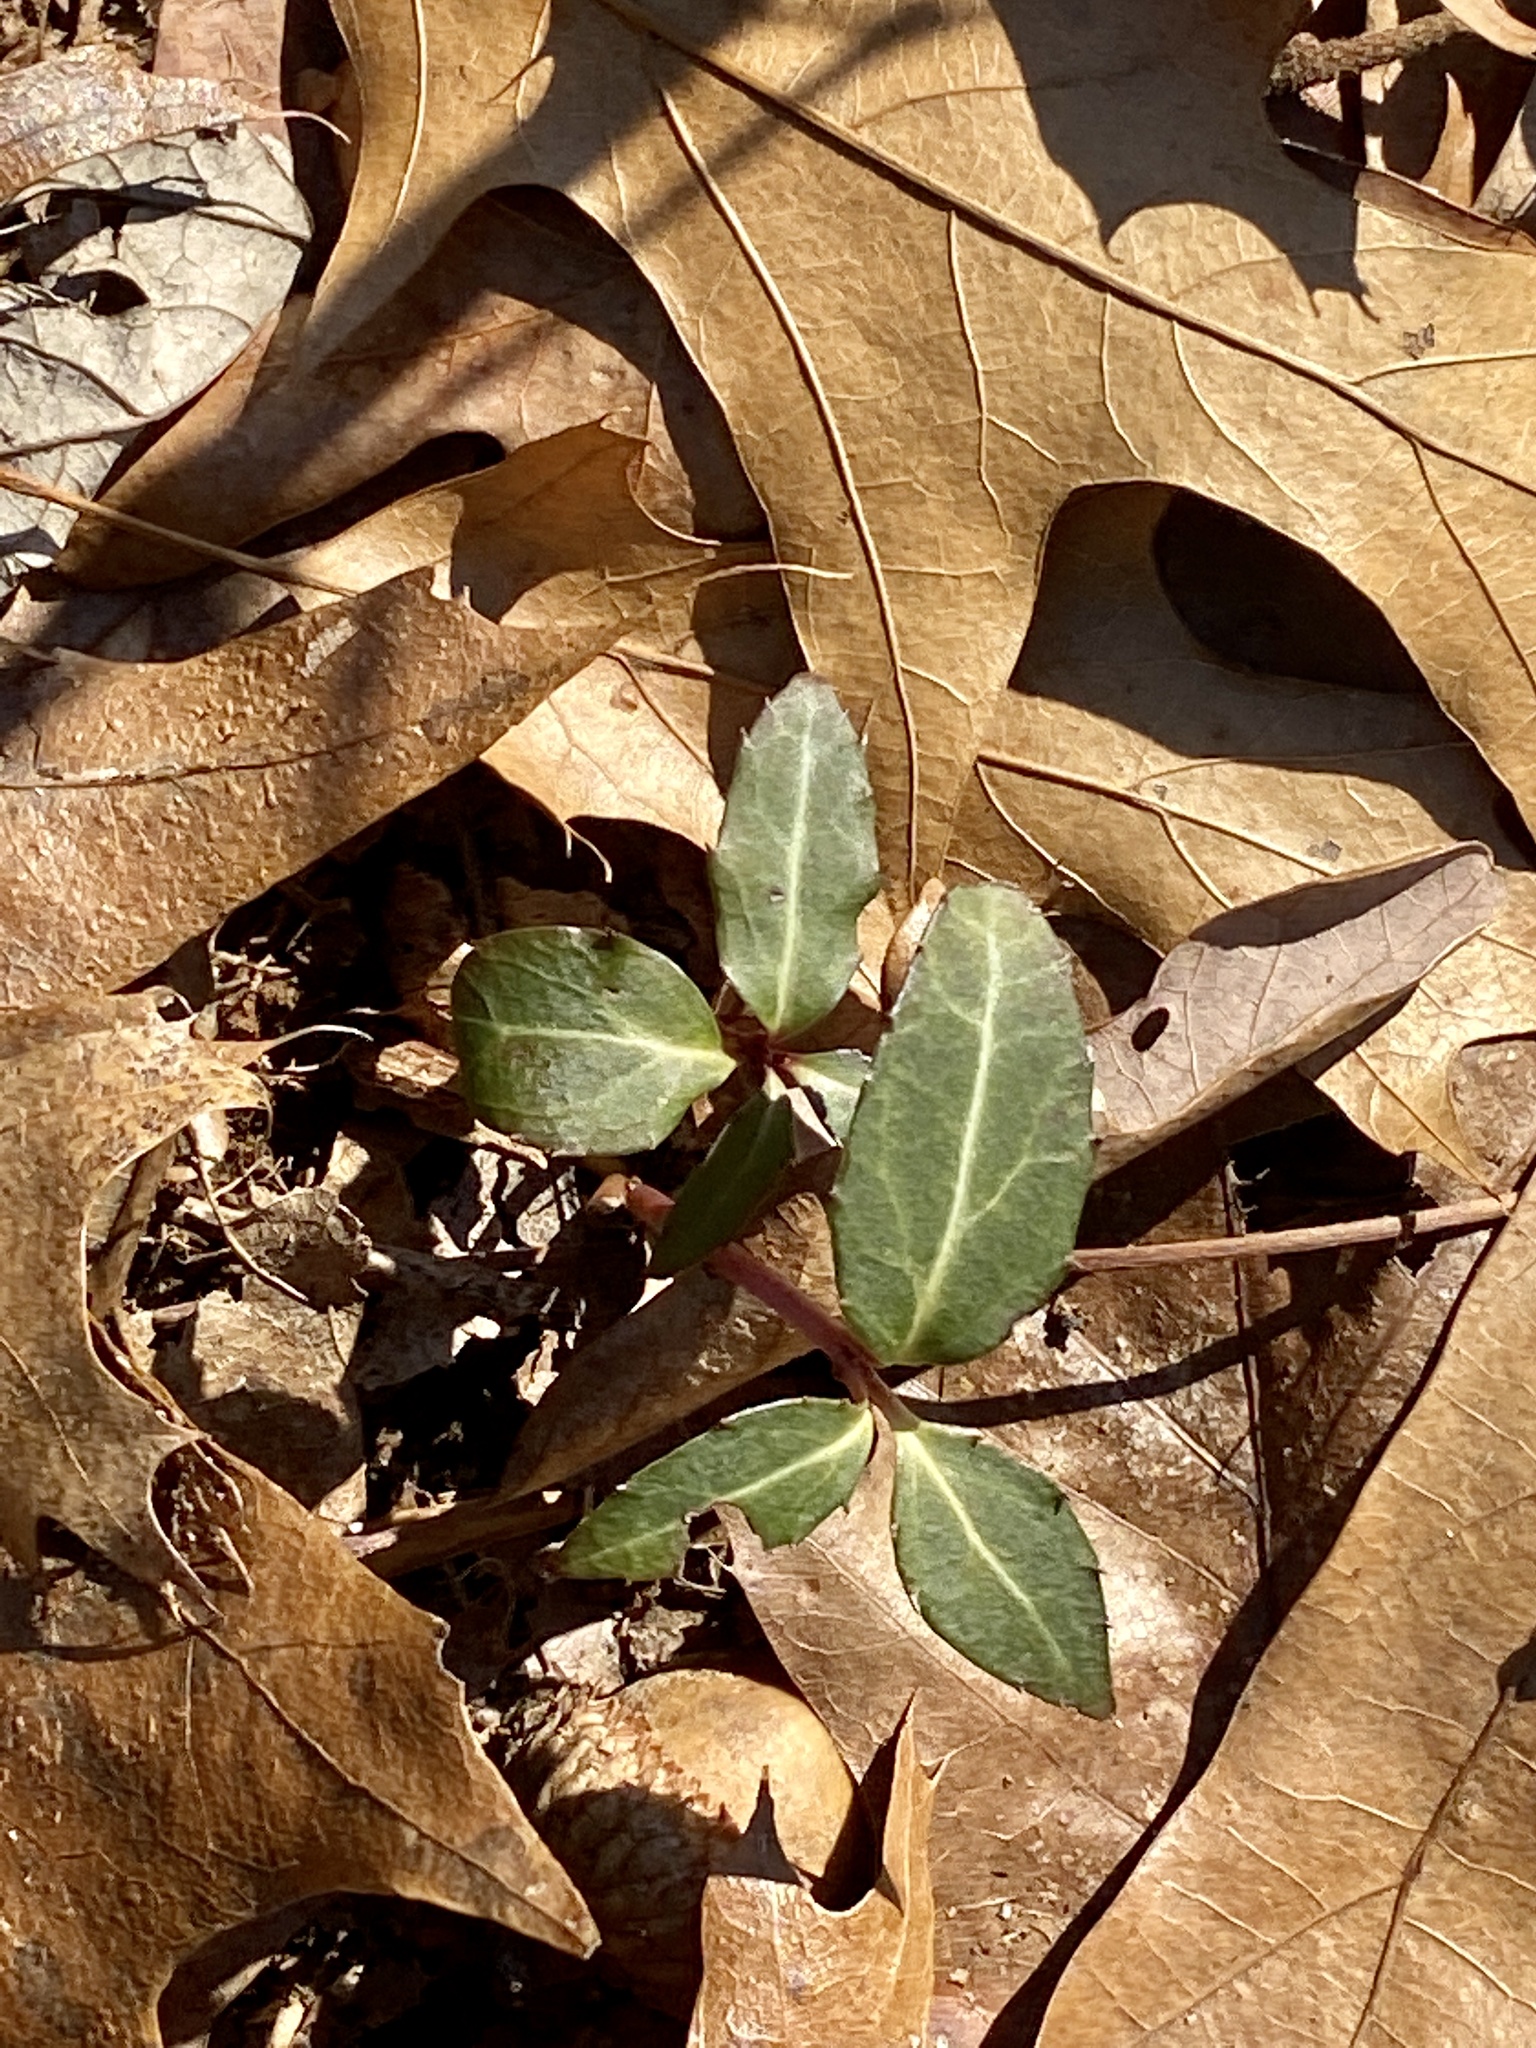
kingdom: Plantae
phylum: Tracheophyta
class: Magnoliopsida
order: Ericales
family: Ericaceae
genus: Chimaphila
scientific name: Chimaphila maculata
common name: Spotted pipsissewa
